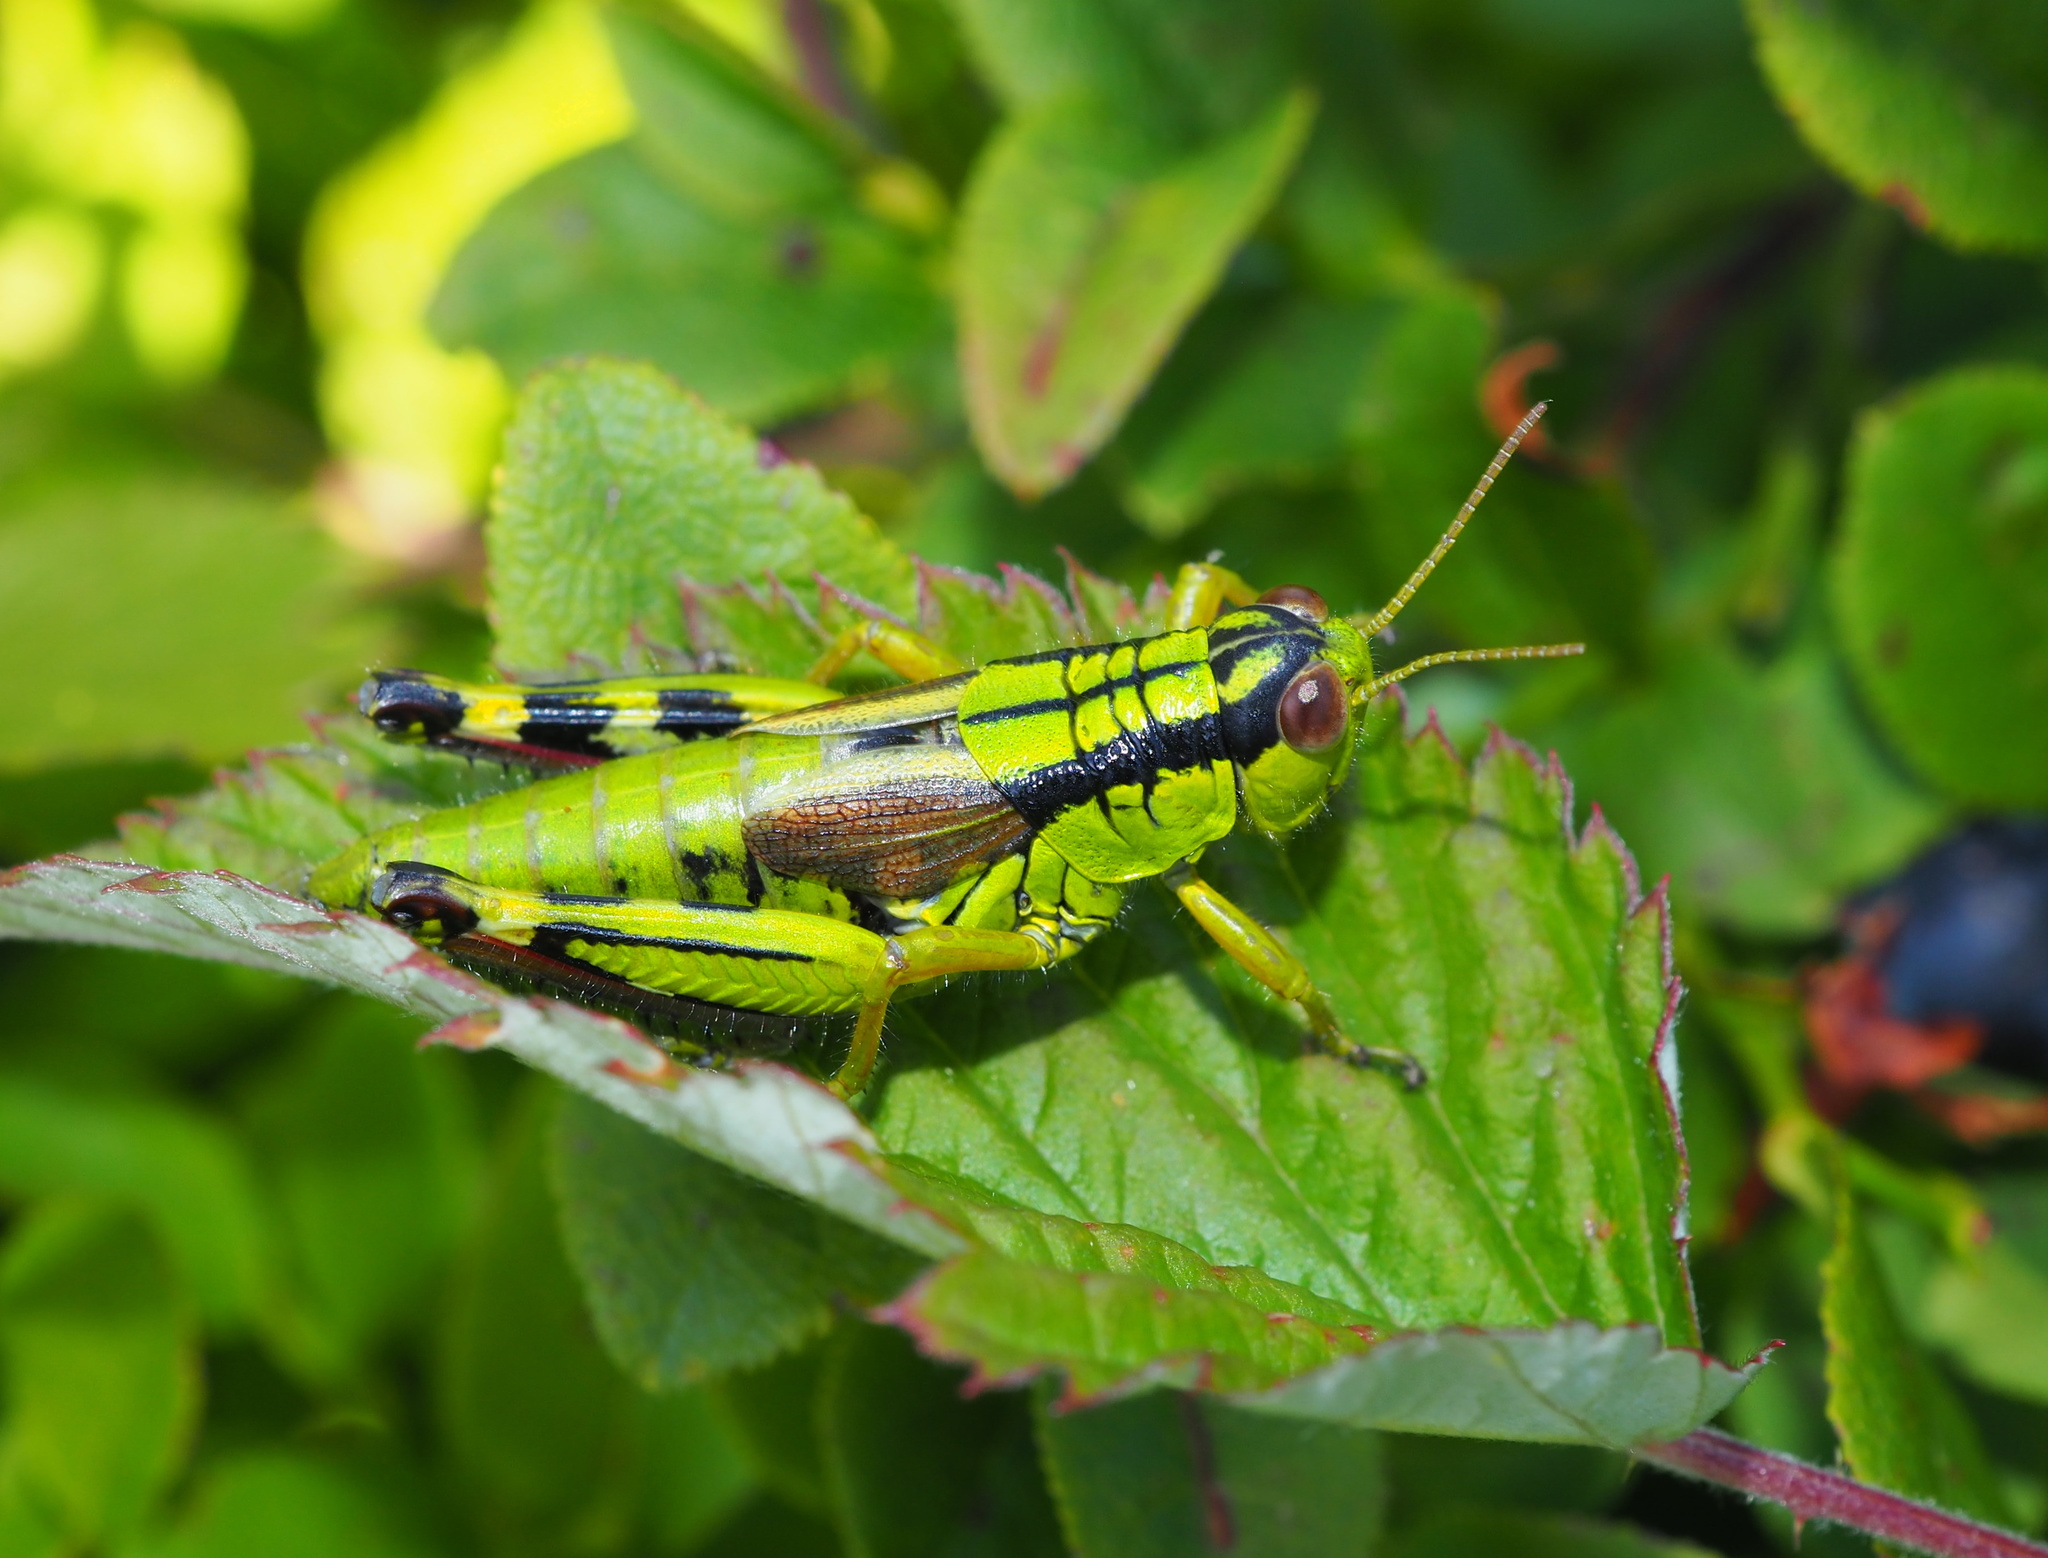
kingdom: Animalia
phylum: Arthropoda
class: Insecta
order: Orthoptera
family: Acrididae
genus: Miramella
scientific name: Miramella frinias
